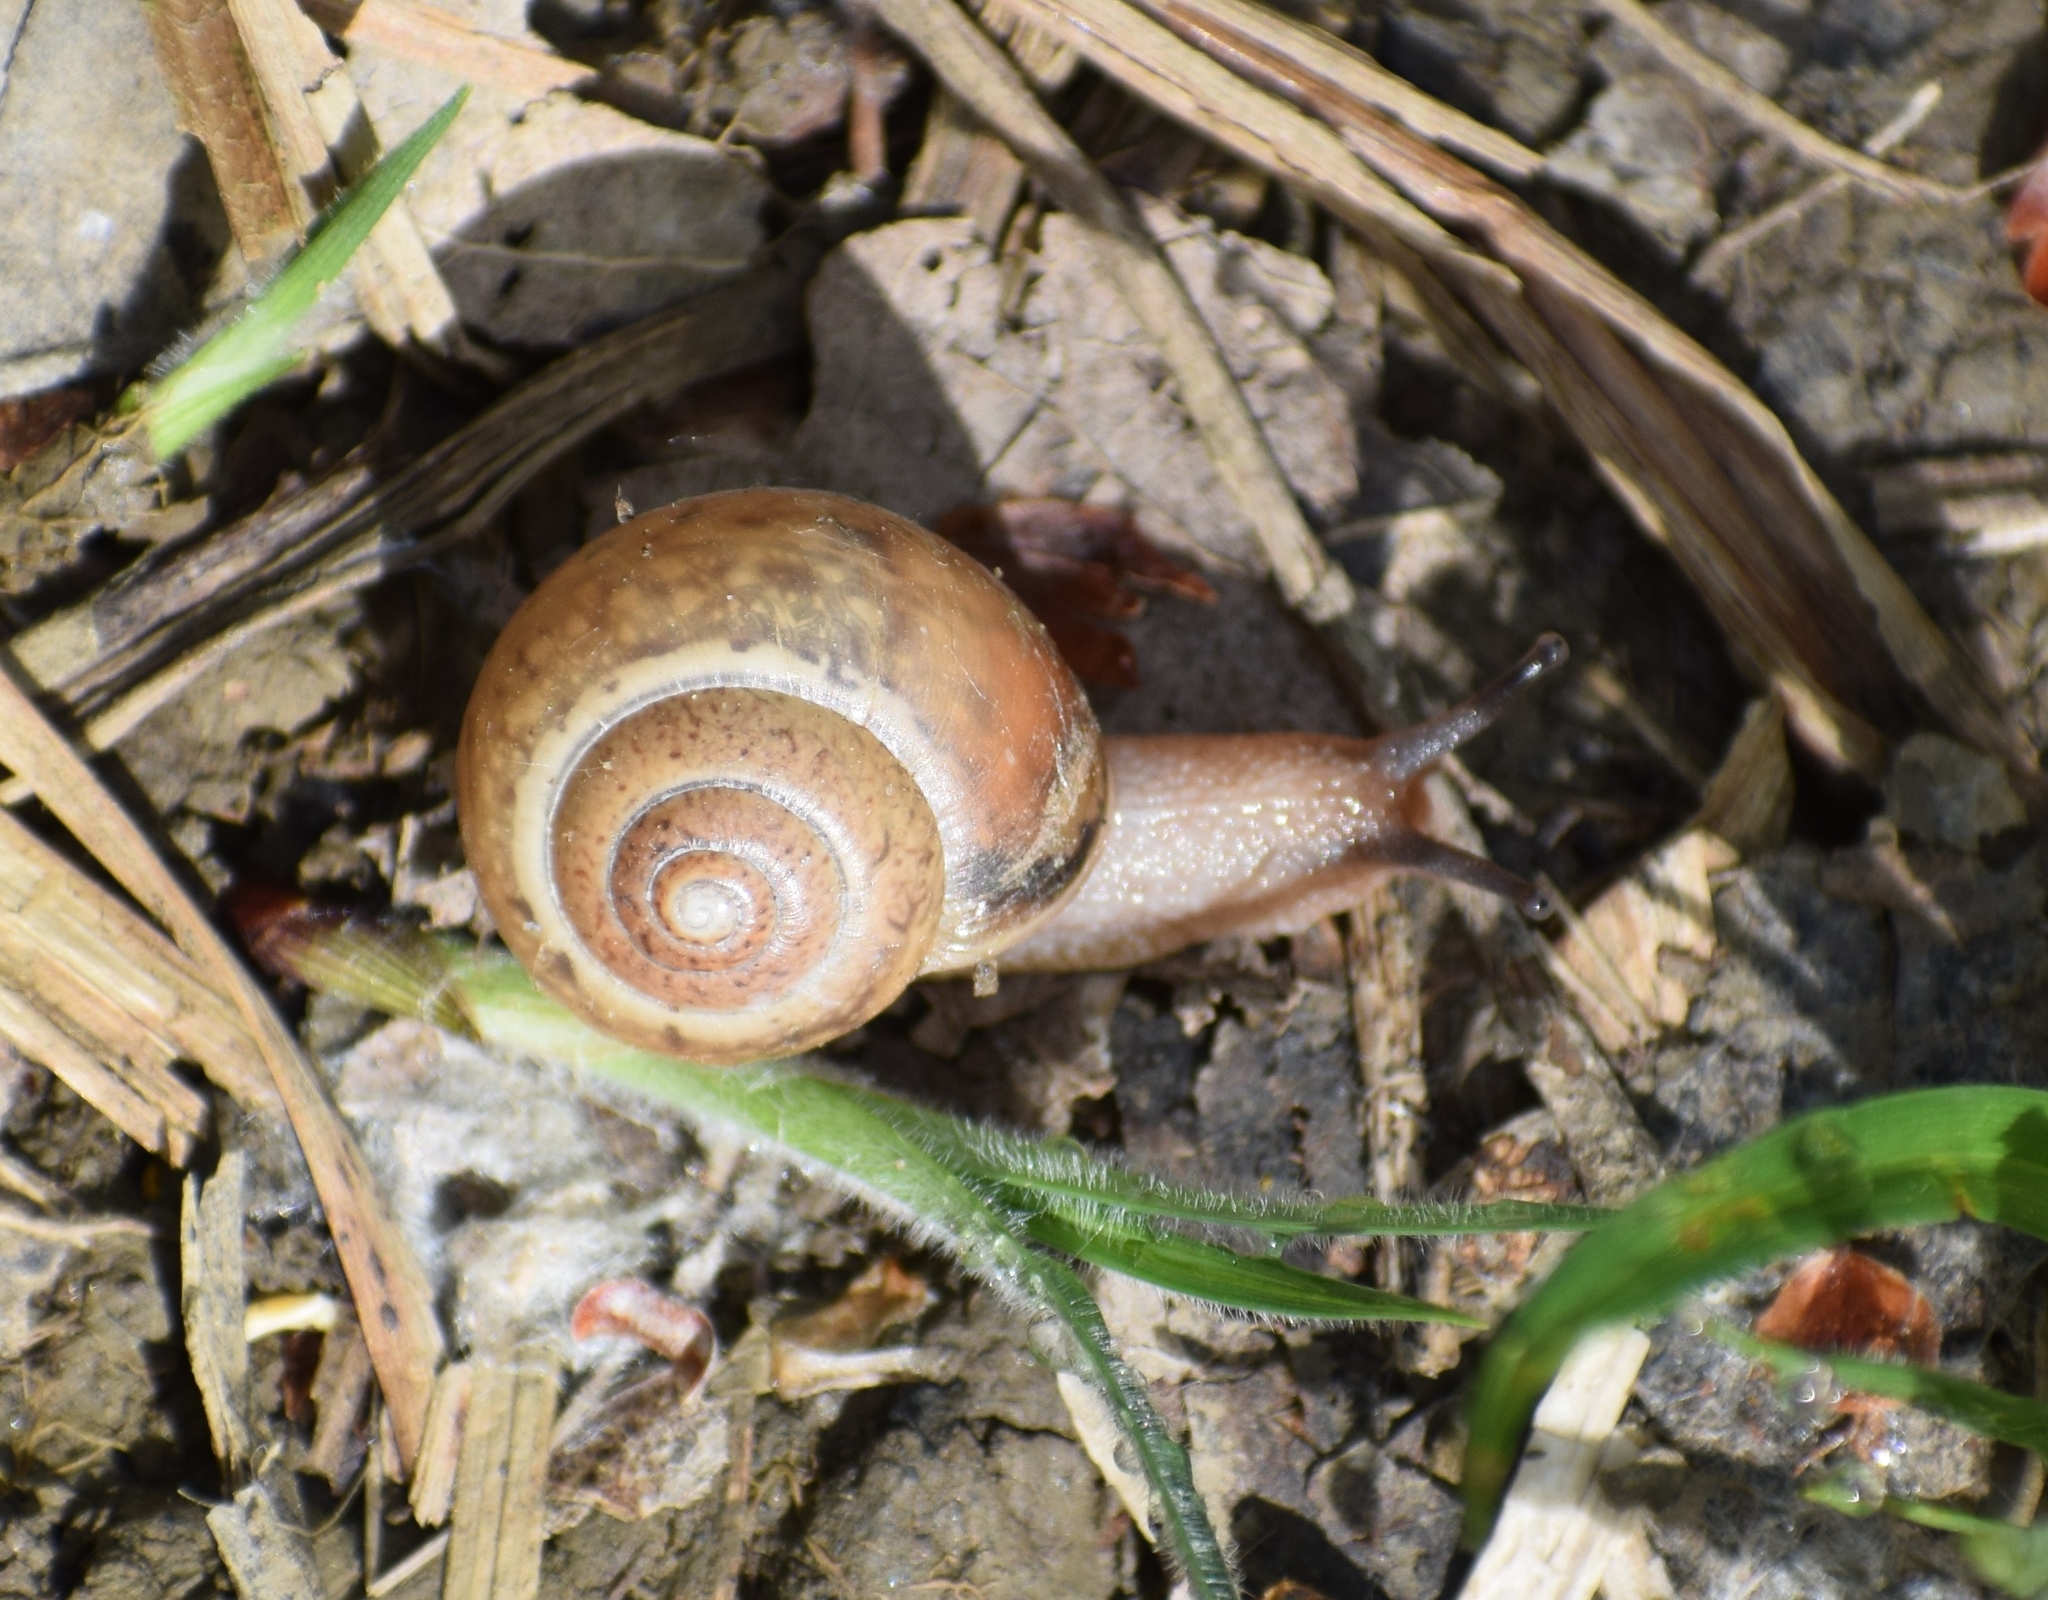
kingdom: Animalia
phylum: Mollusca
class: Gastropoda
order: Stylommatophora
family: Camaenidae
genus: Fruticicola
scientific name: Fruticicola fruticum
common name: Bush snail
